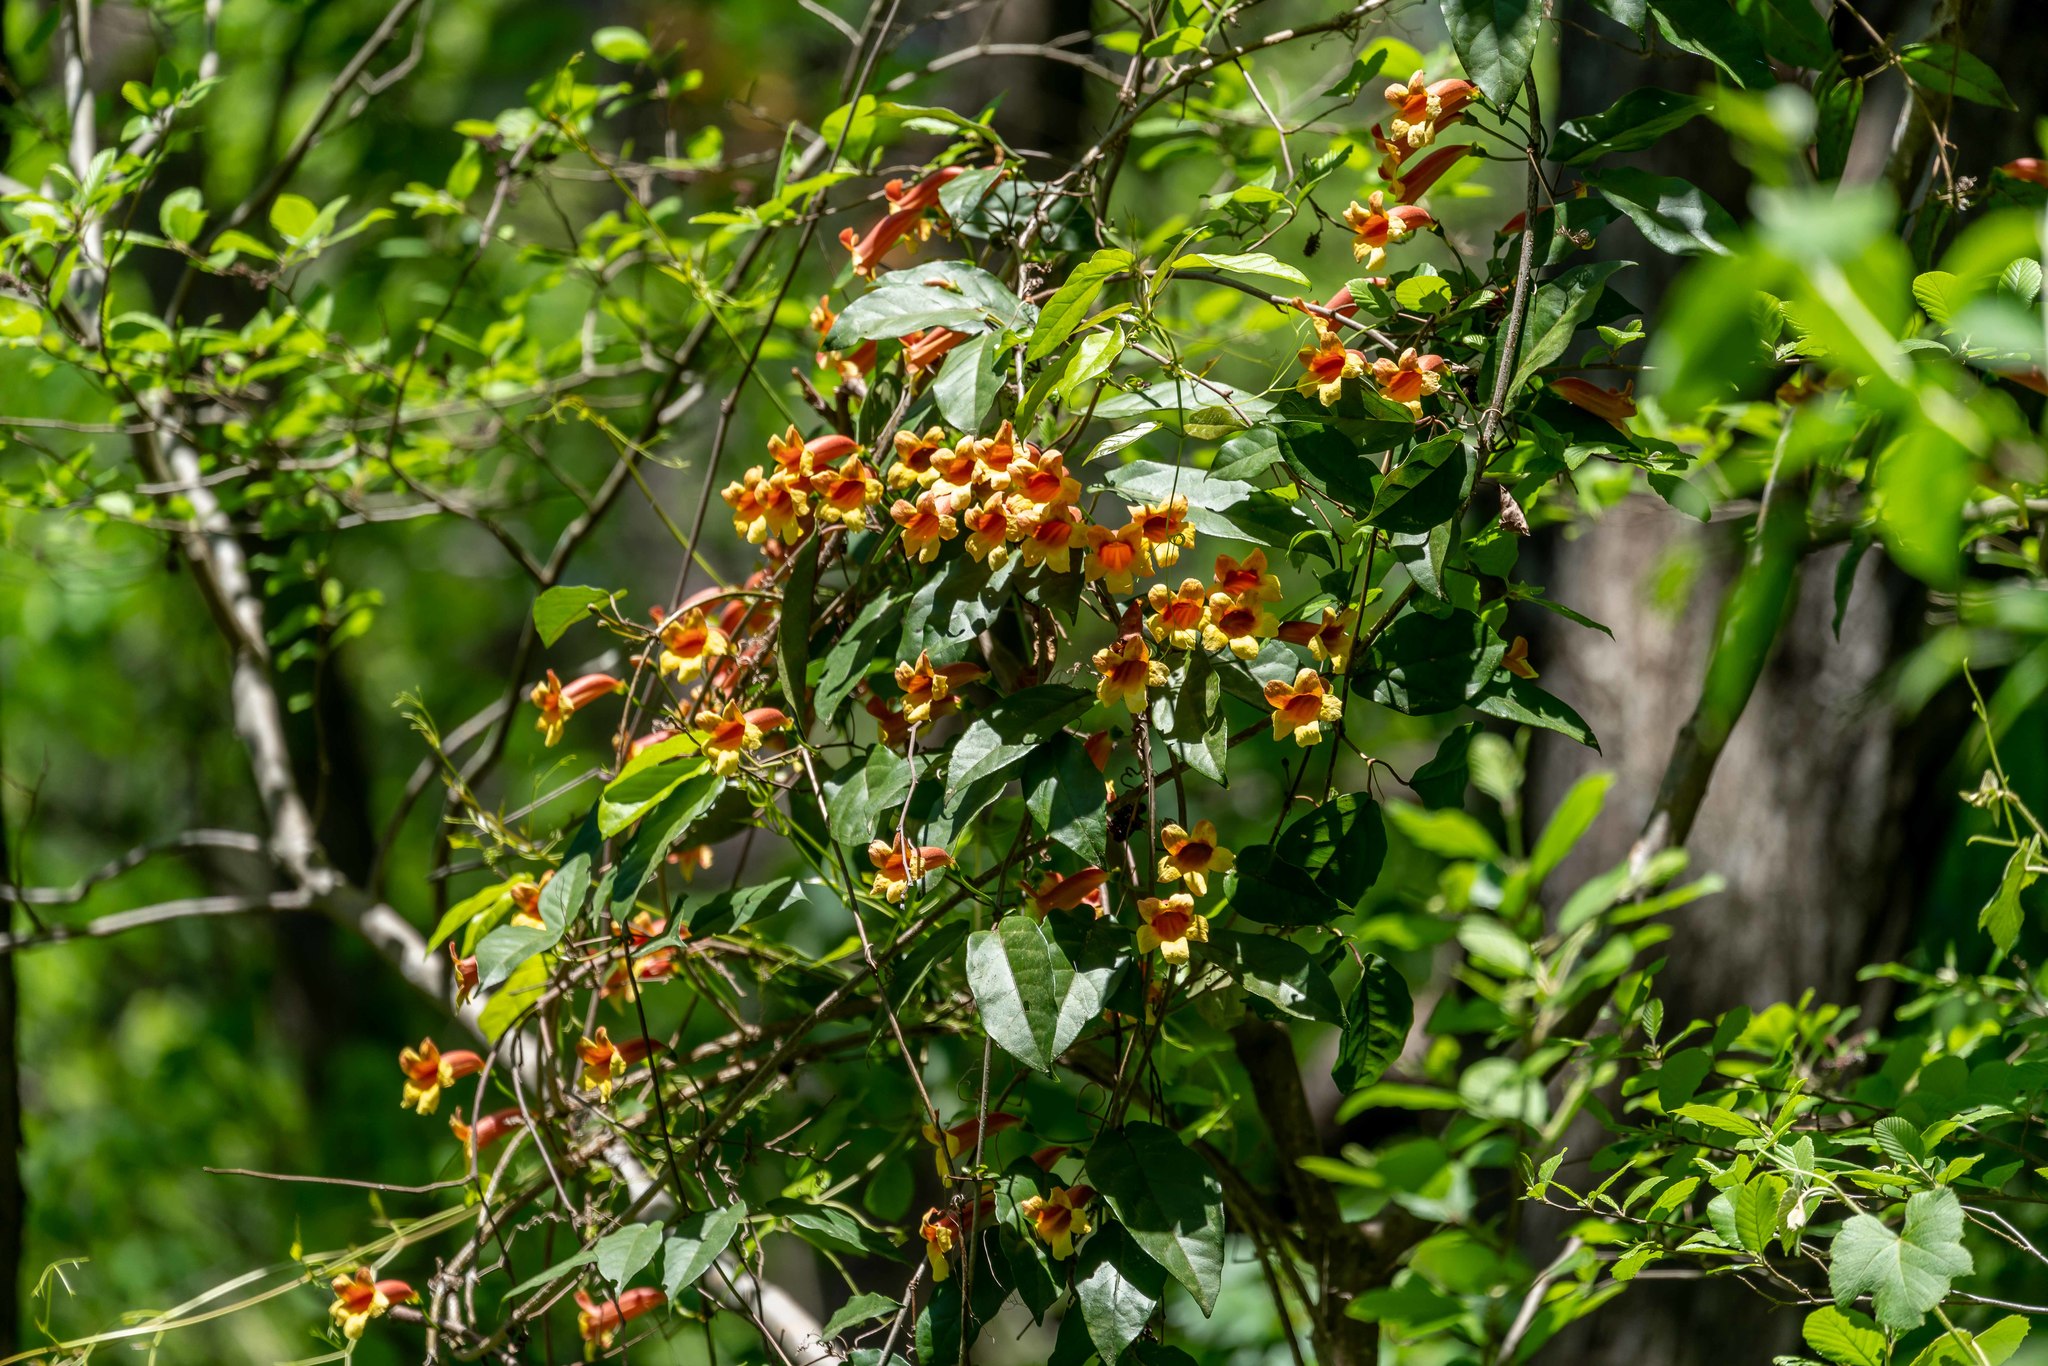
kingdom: Plantae
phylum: Tracheophyta
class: Magnoliopsida
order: Lamiales
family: Bignoniaceae
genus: Bignonia
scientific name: Bignonia capreolata
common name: Crossvine
